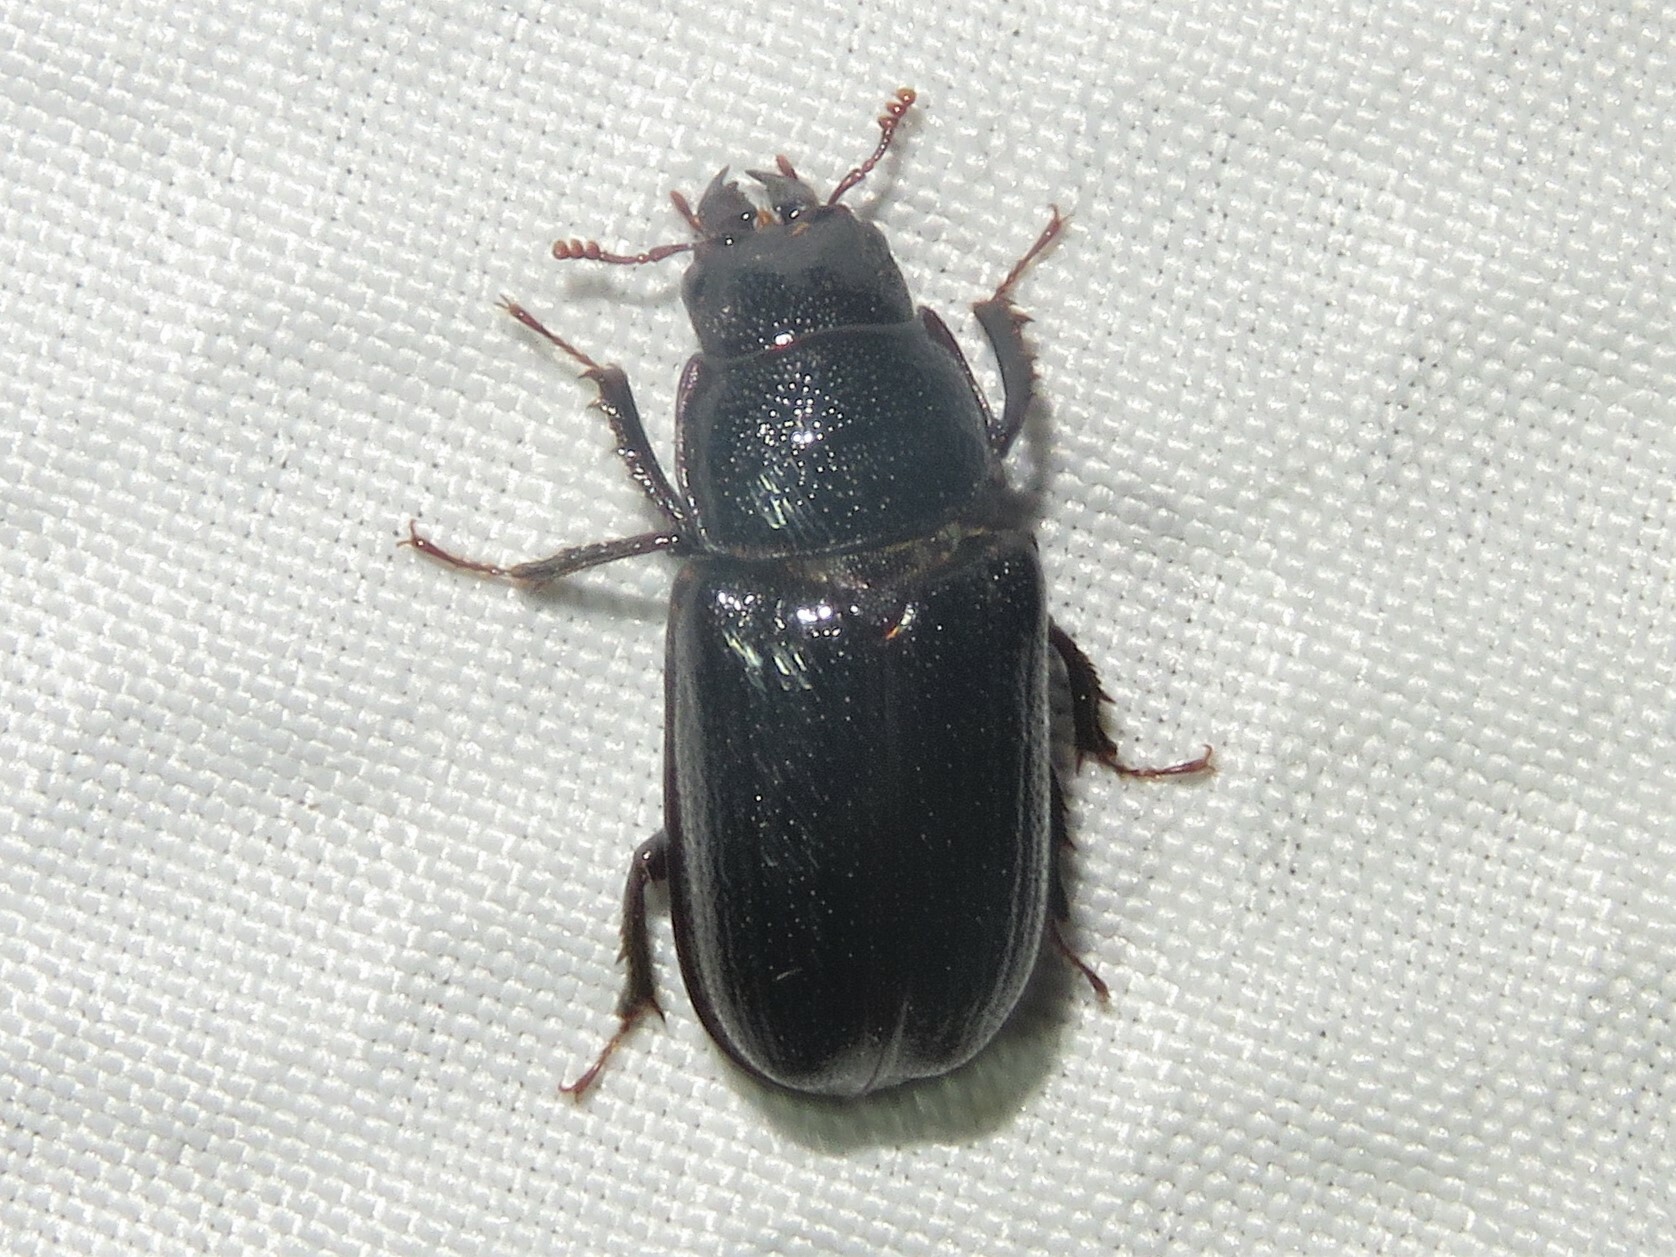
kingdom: Animalia
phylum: Arthropoda
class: Insecta
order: Coleoptera
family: Lucanidae
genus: Ceruchus
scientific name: Ceruchus piceus
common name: Red-rot decay stag beetle
